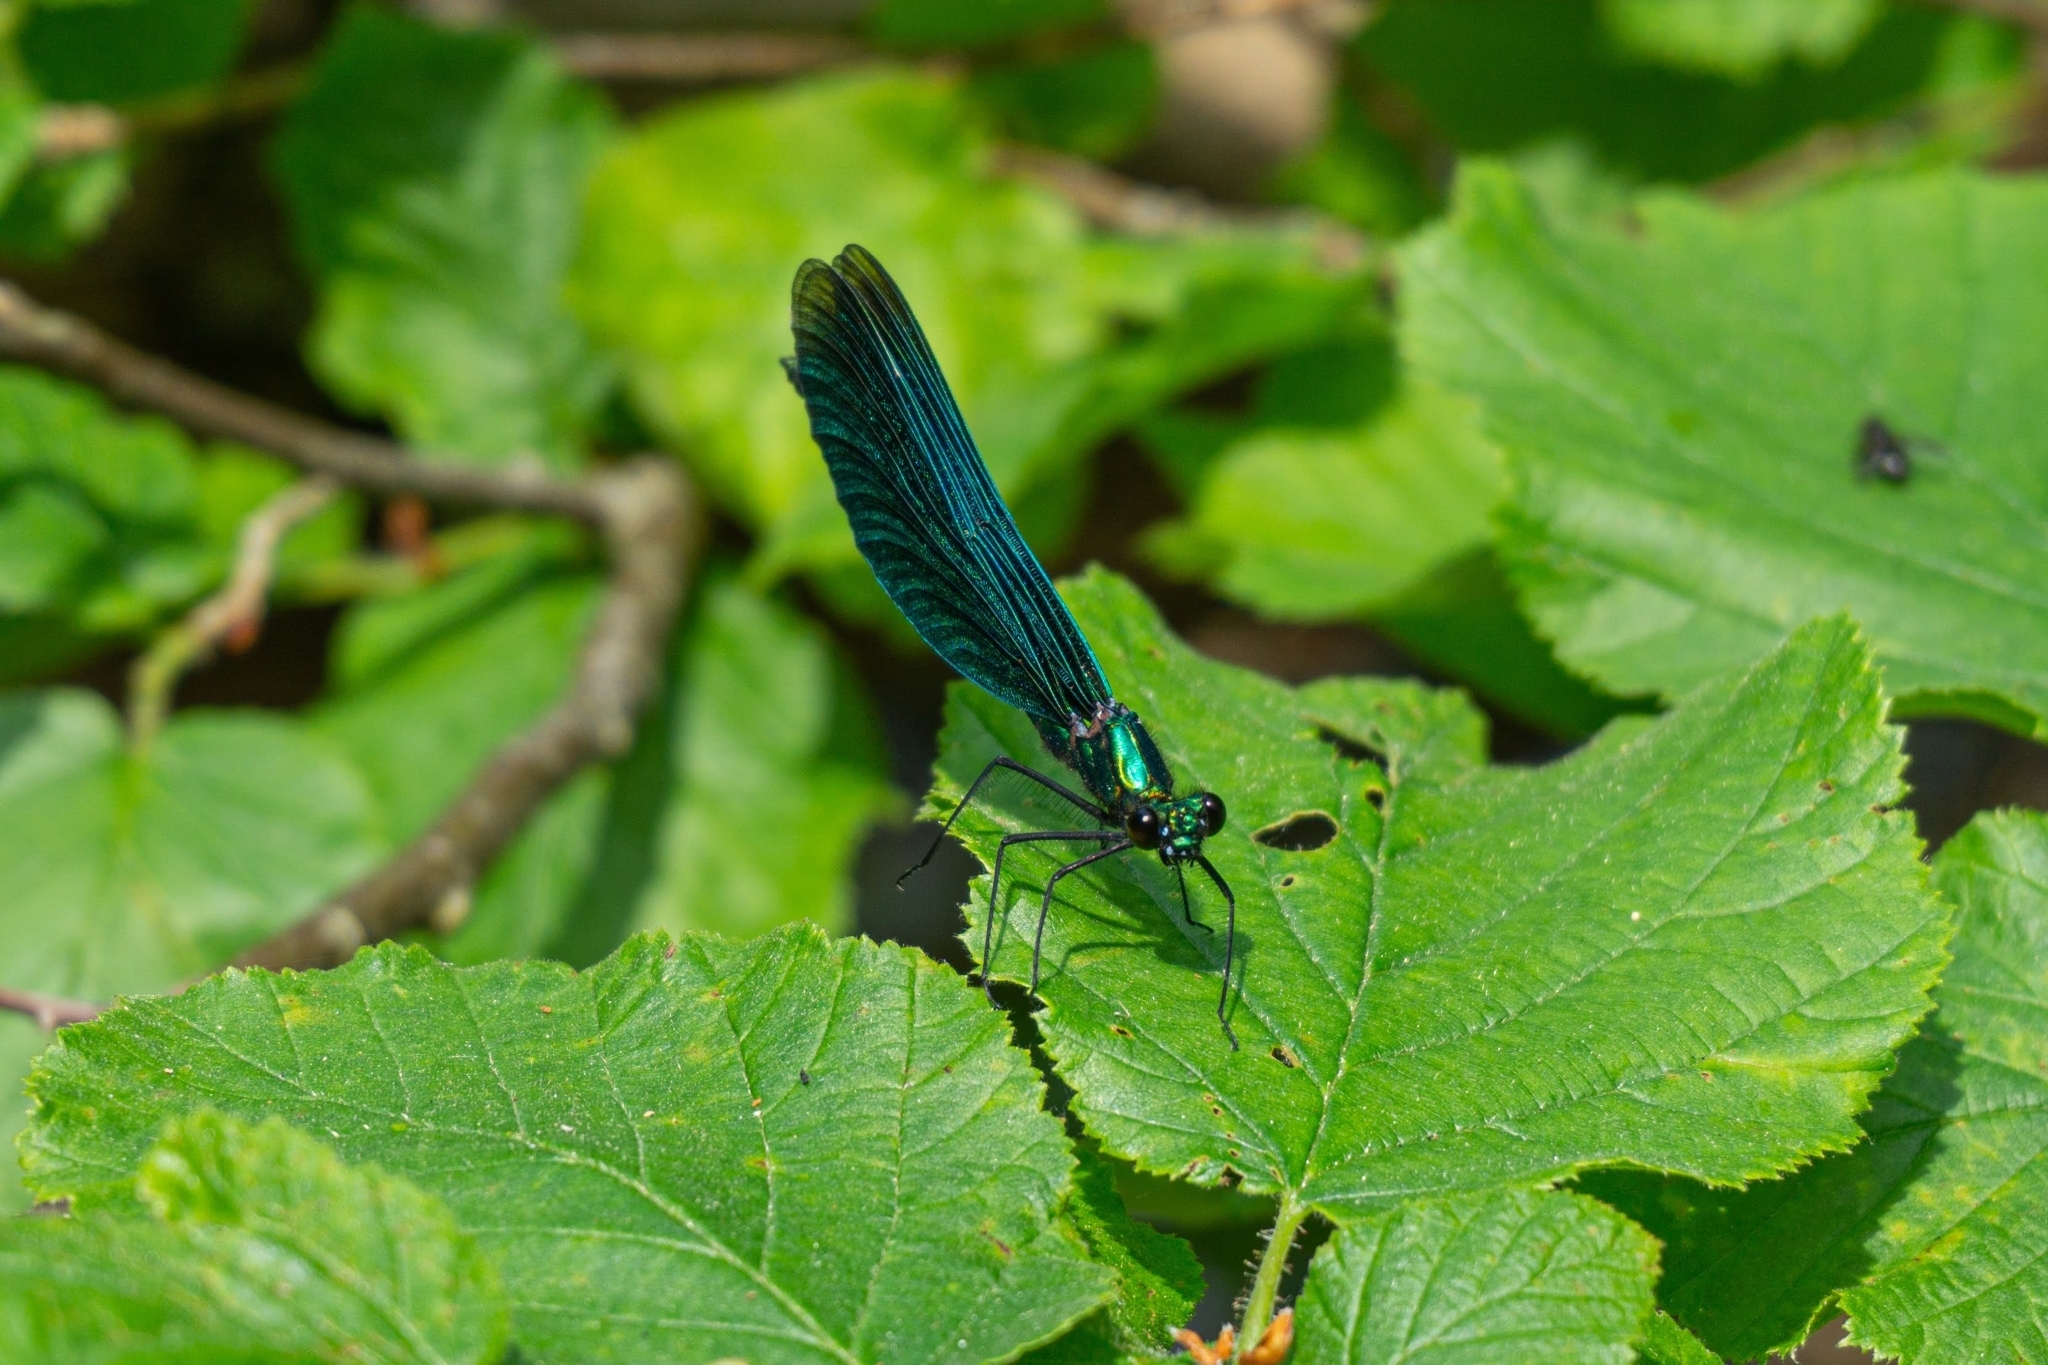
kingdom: Animalia
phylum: Arthropoda
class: Insecta
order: Odonata
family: Calopterygidae
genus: Calopteryx
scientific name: Calopteryx virgo
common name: Beautiful demoiselle
